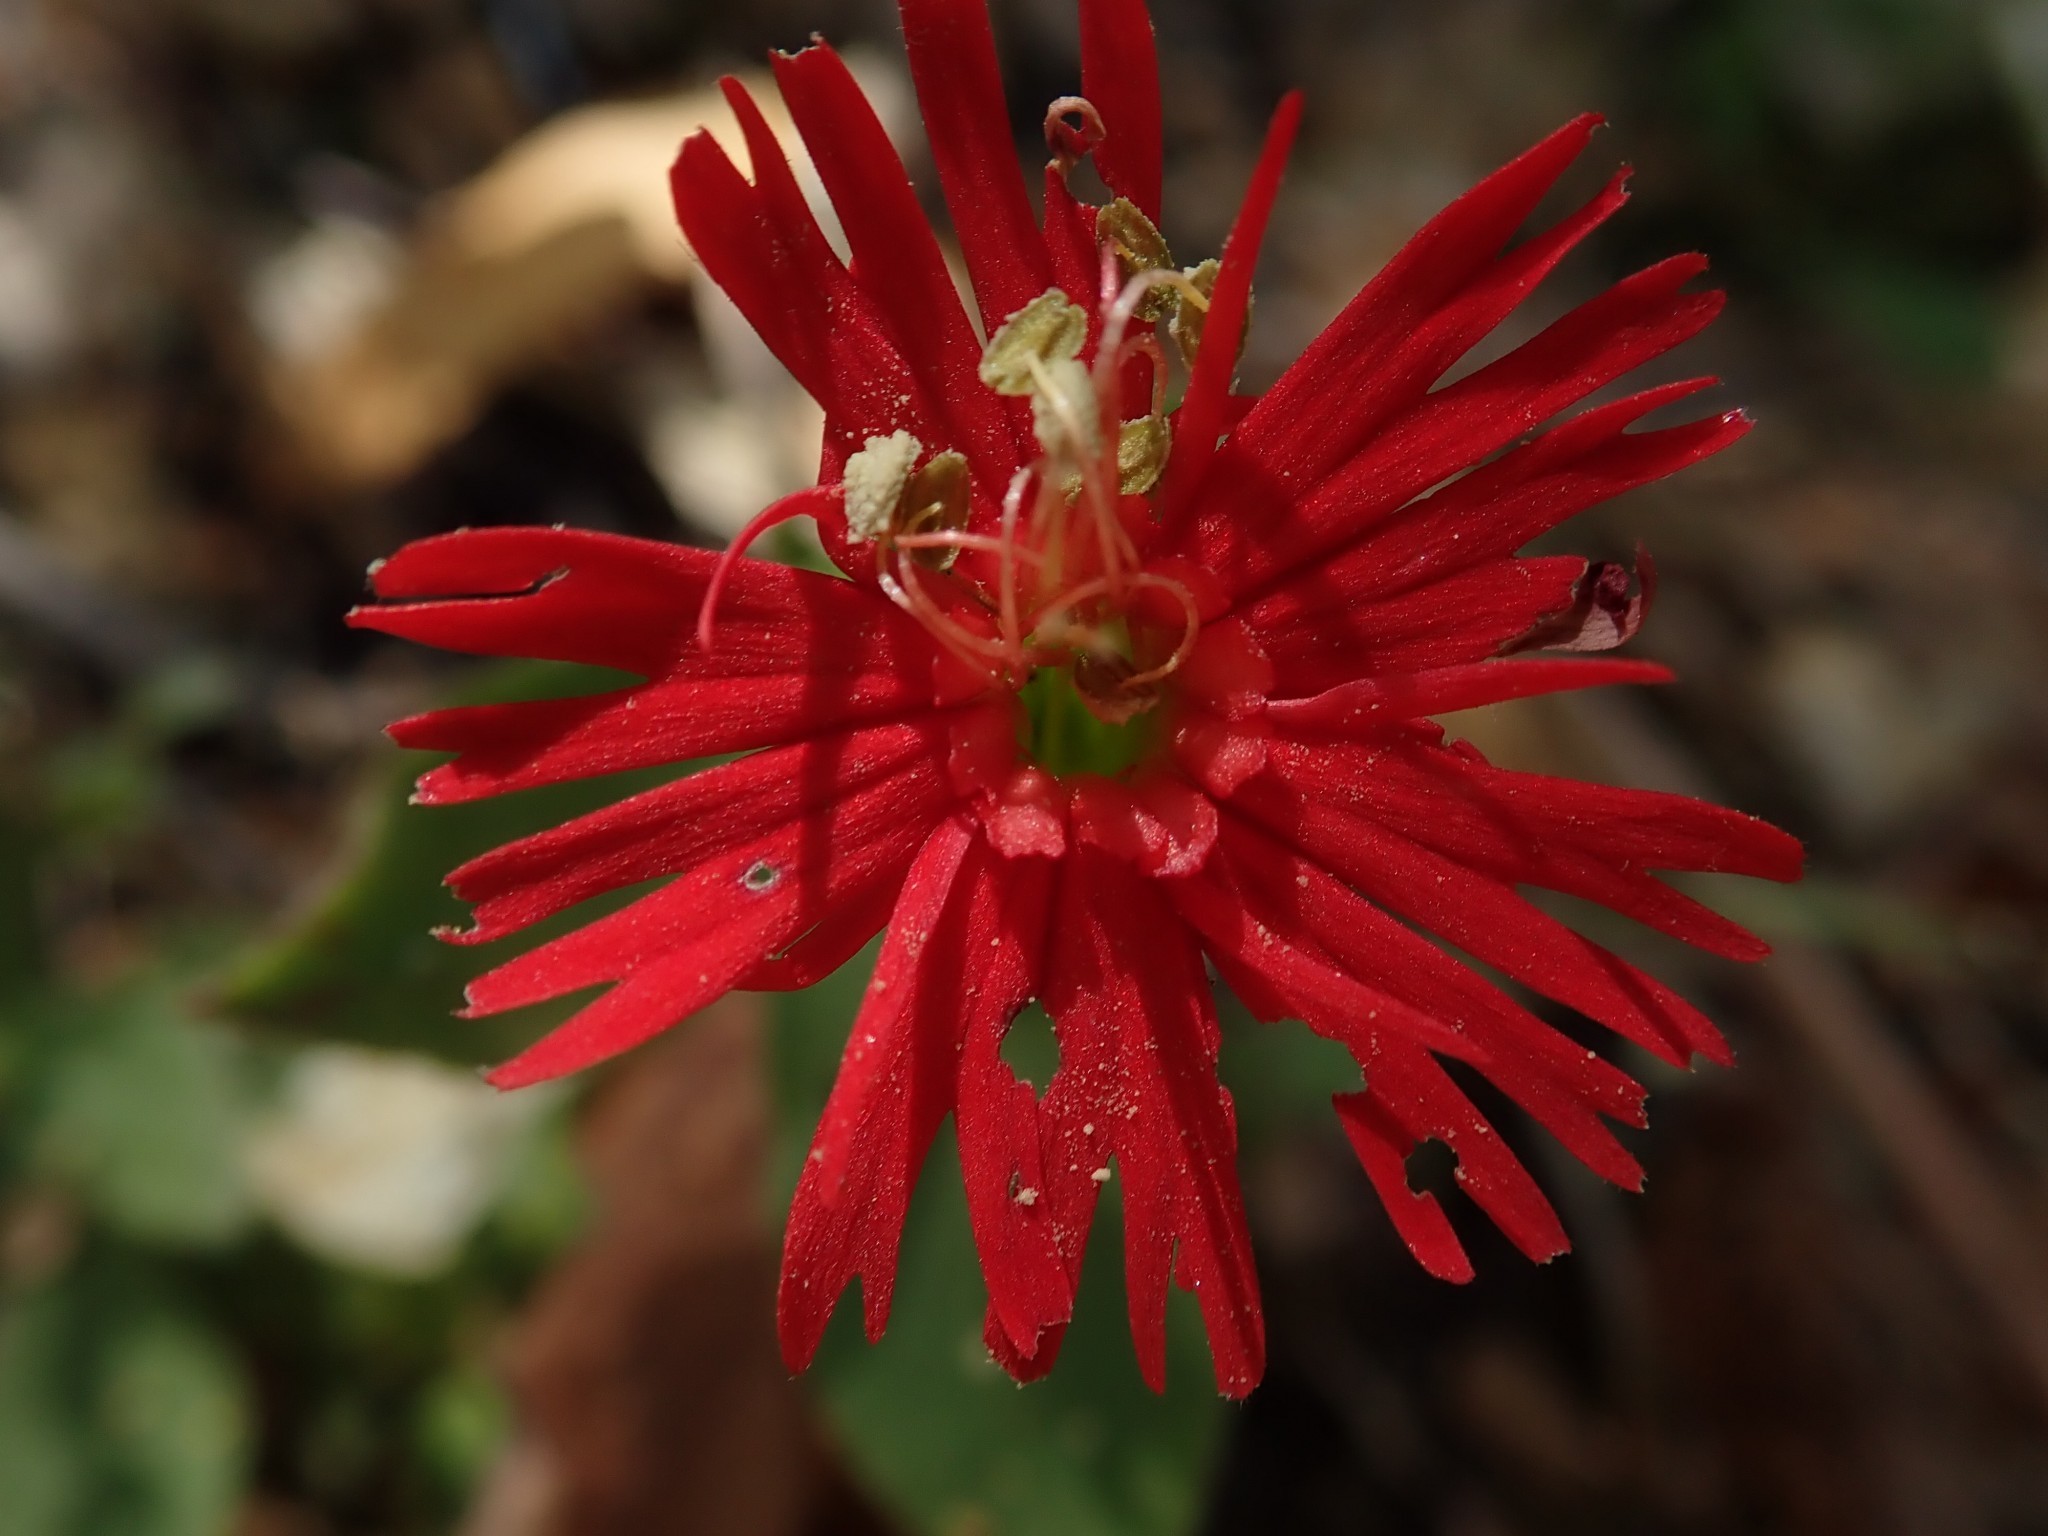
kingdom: Plantae
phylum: Tracheophyta
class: Magnoliopsida
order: Caryophyllales
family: Caryophyllaceae
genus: Silene
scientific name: Silene laciniata
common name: Indian-pink
